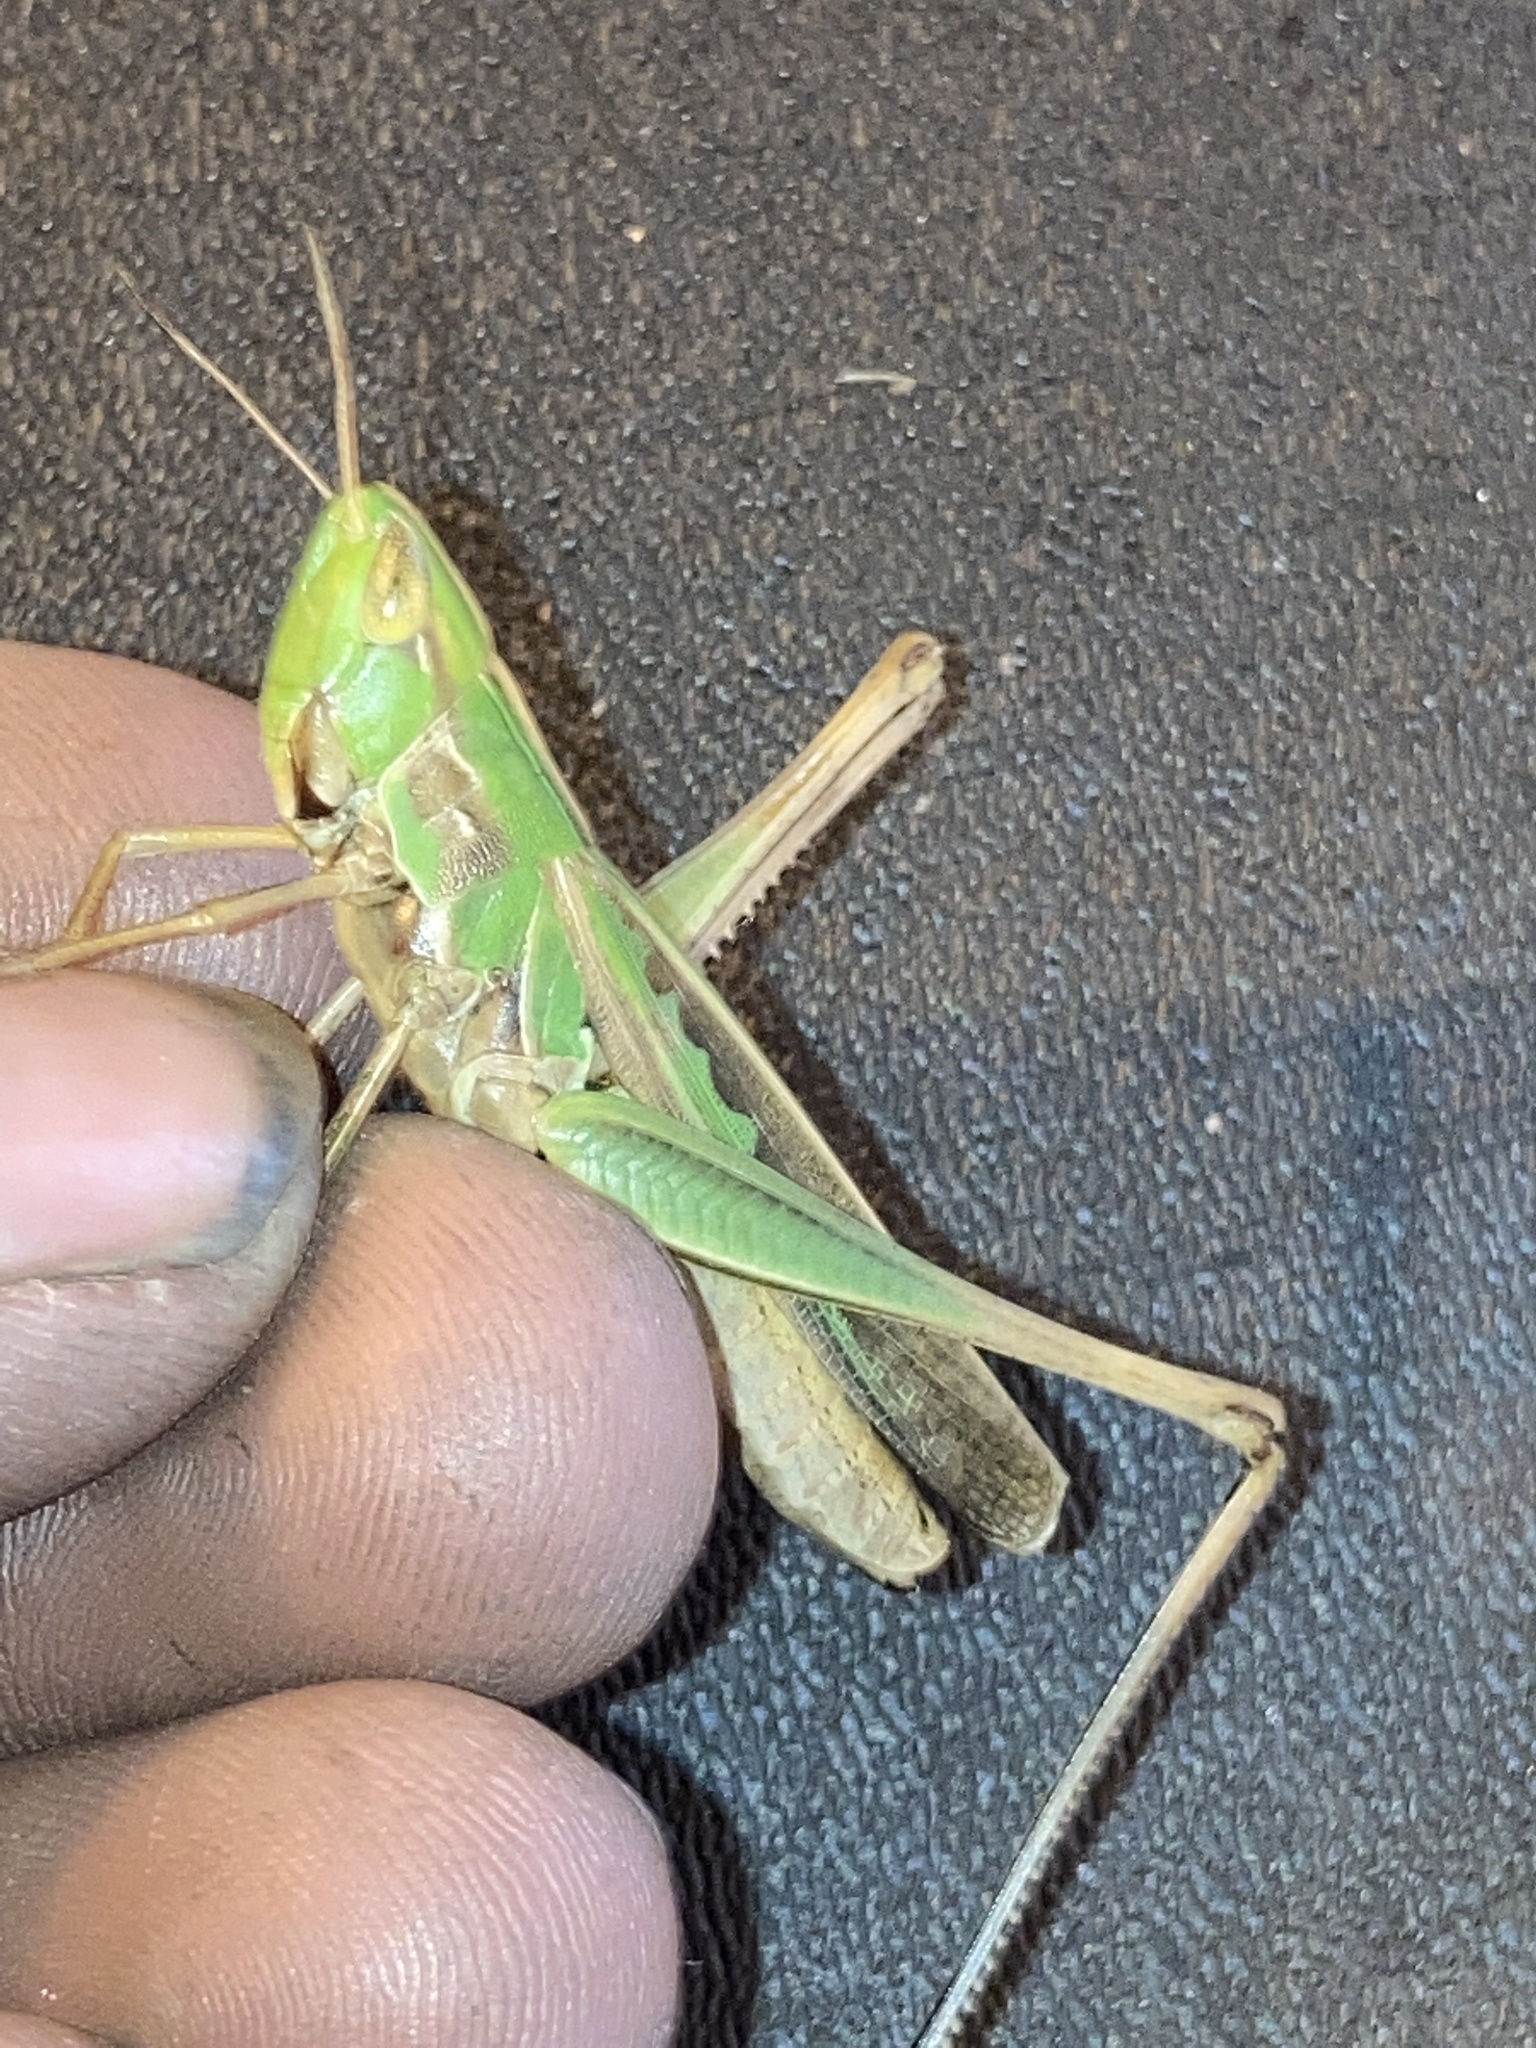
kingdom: Animalia
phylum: Arthropoda
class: Insecta
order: Orthoptera
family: Acrididae
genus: Syrbula
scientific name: Syrbula admirabilis
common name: Handsome grasshopper
